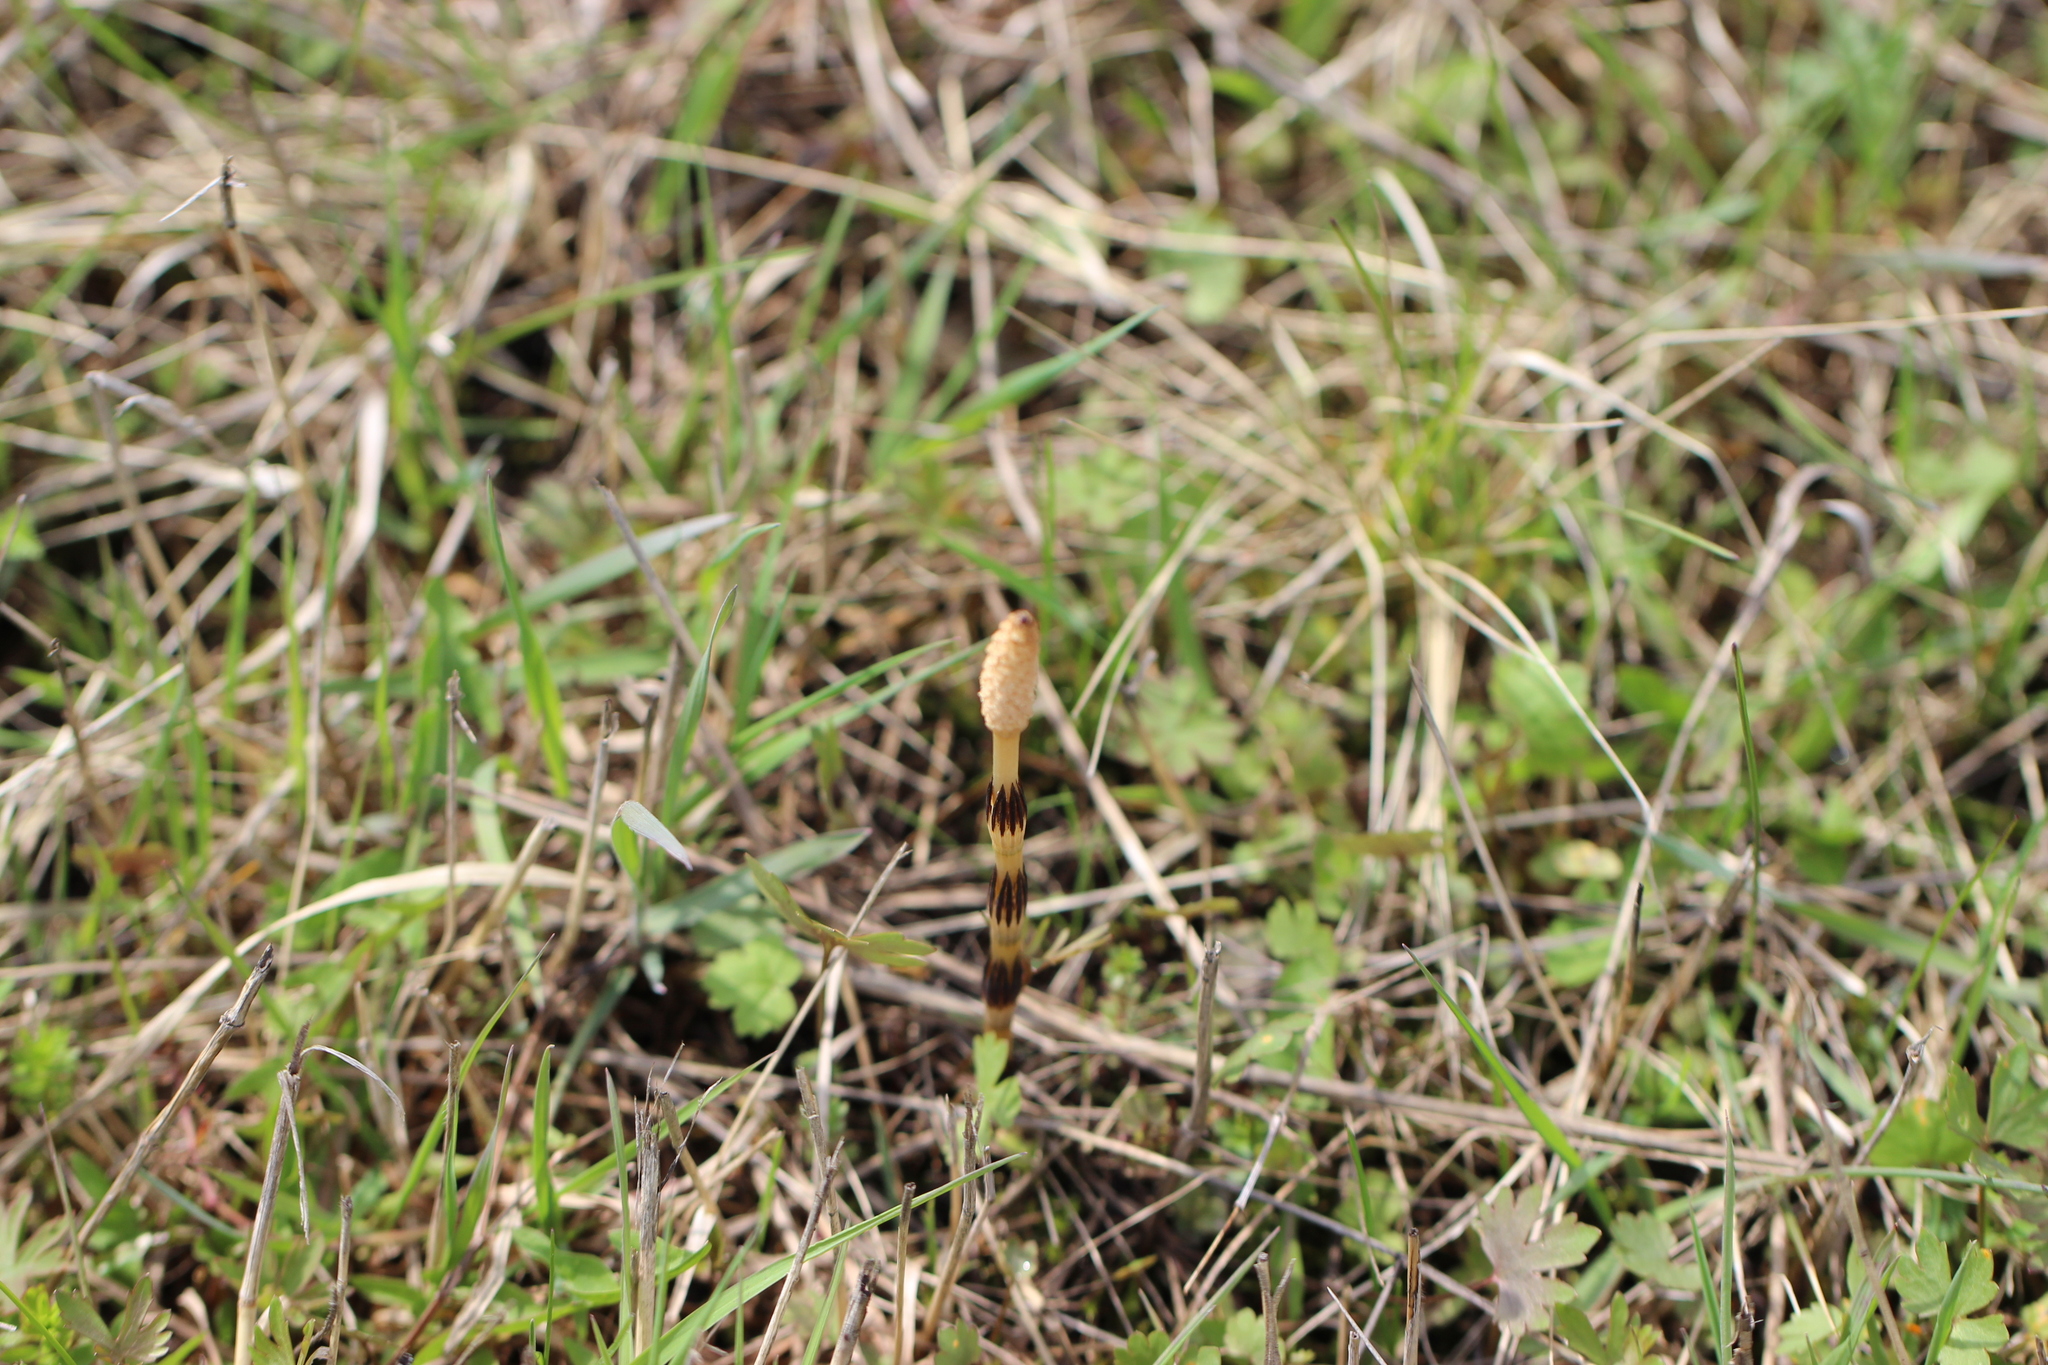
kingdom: Plantae
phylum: Tracheophyta
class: Polypodiopsida
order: Equisetales
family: Equisetaceae
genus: Equisetum
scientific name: Equisetum arvense
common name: Field horsetail
